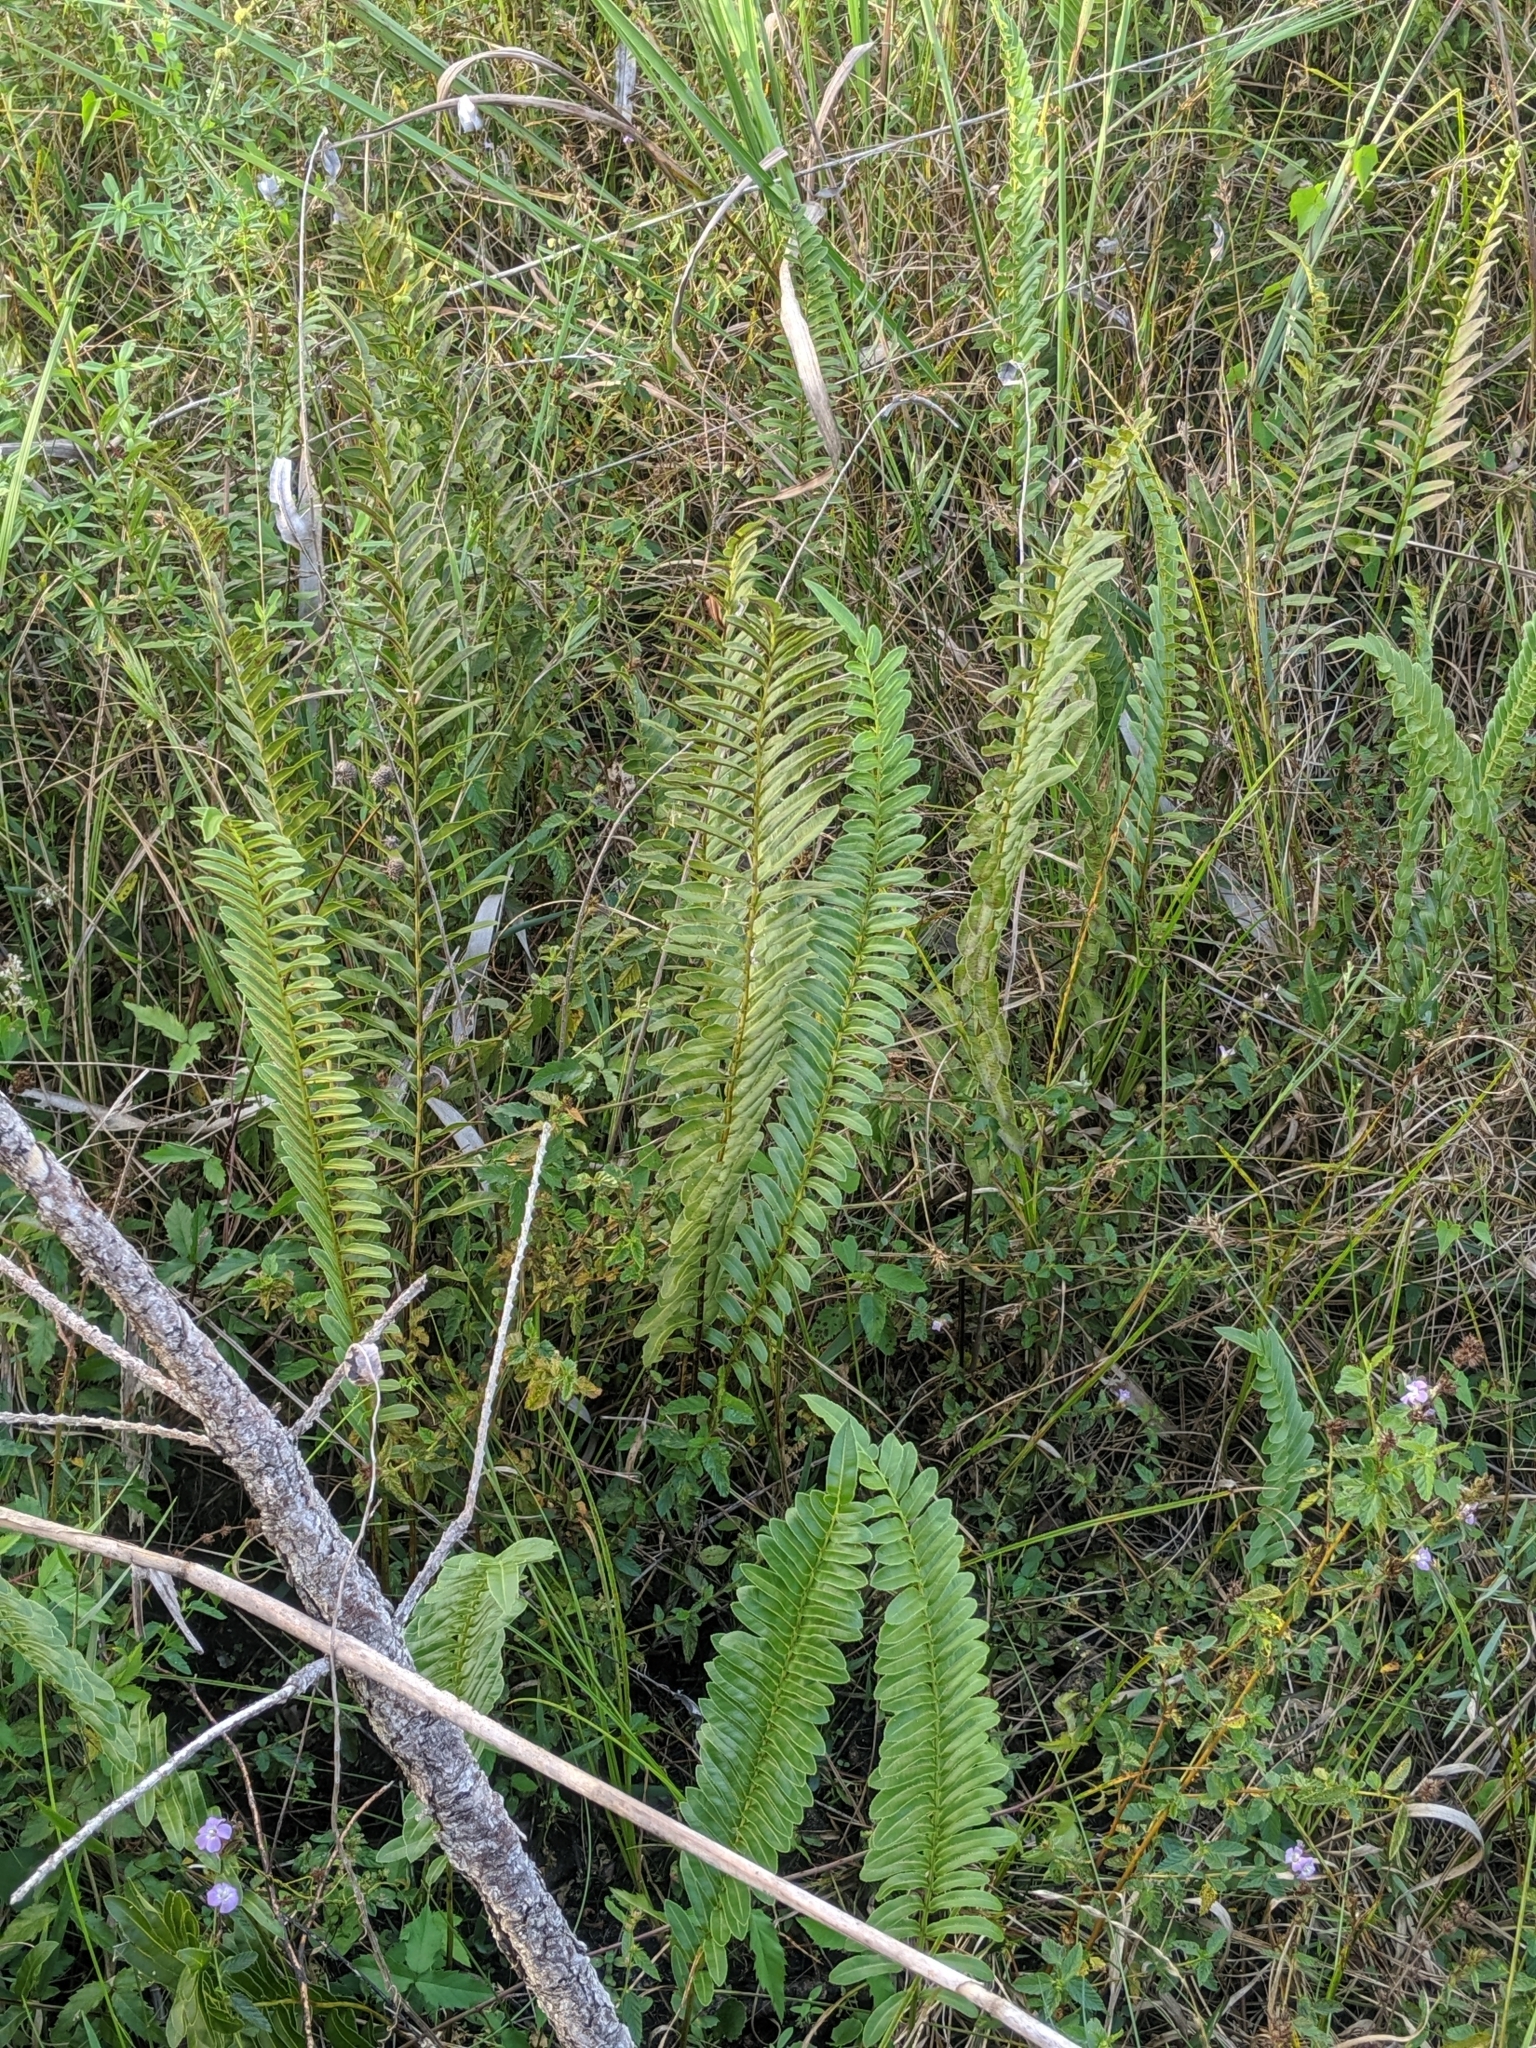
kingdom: Plantae
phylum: Tracheophyta
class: Polypodiopsida
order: Polypodiales
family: Blechnaceae
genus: Telmatoblechnum
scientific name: Telmatoblechnum serrulatum
